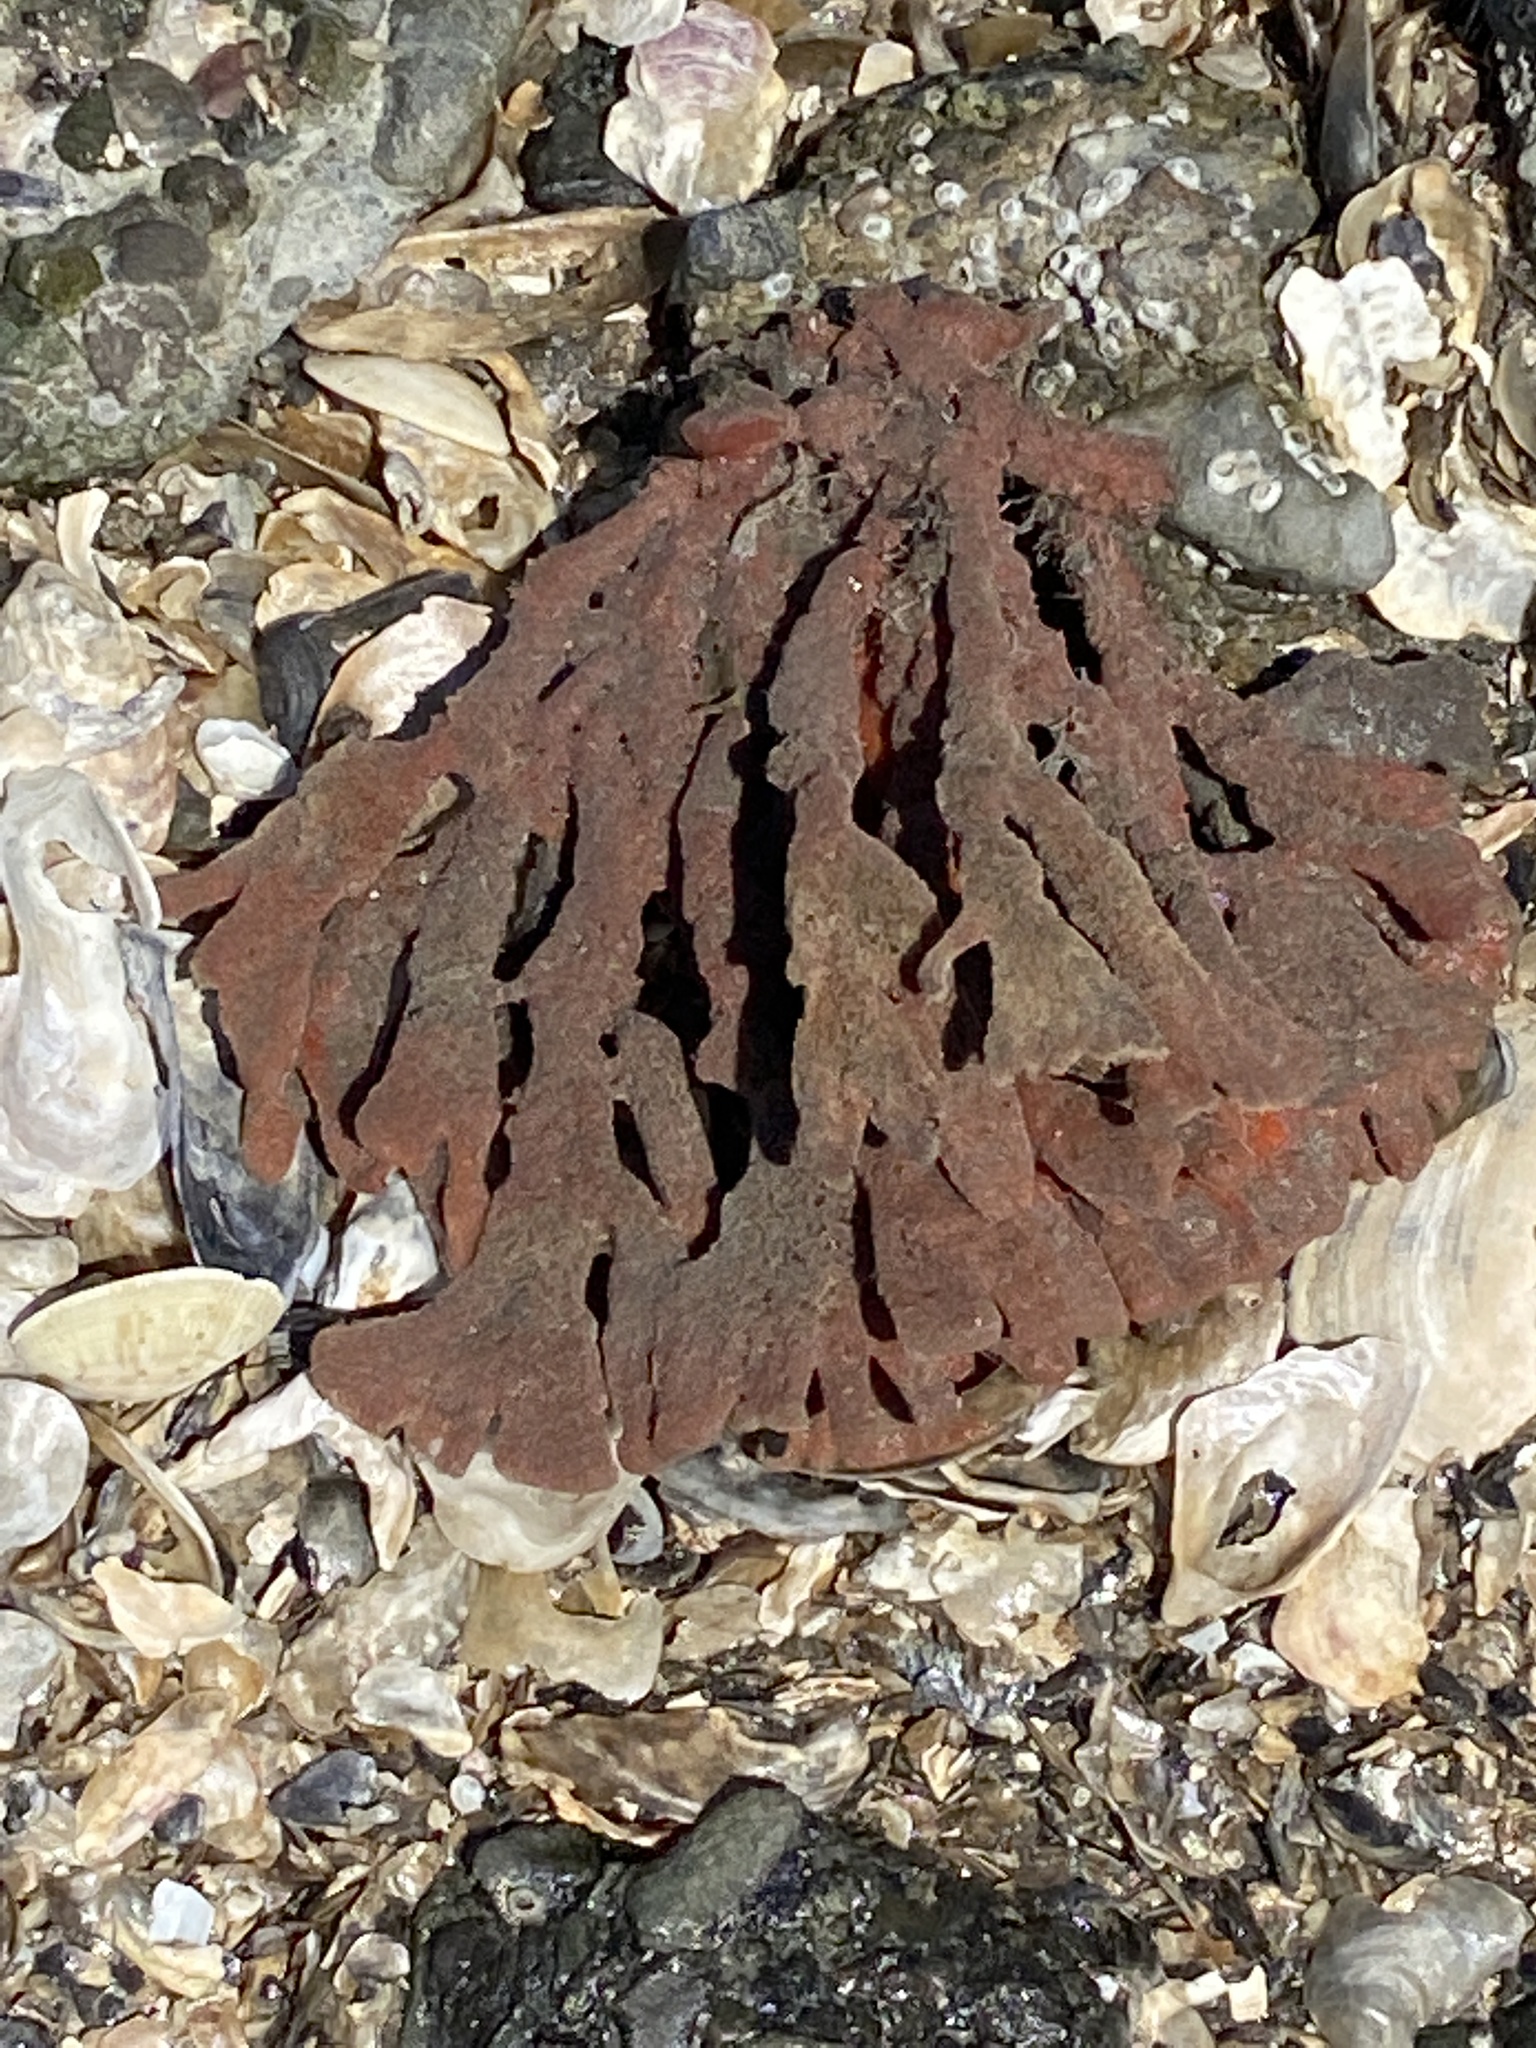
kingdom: Animalia
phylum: Porifera
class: Demospongiae
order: Poecilosclerida
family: Microcionidae
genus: Clathria
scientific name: Clathria prolifera
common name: Red beard sponge
